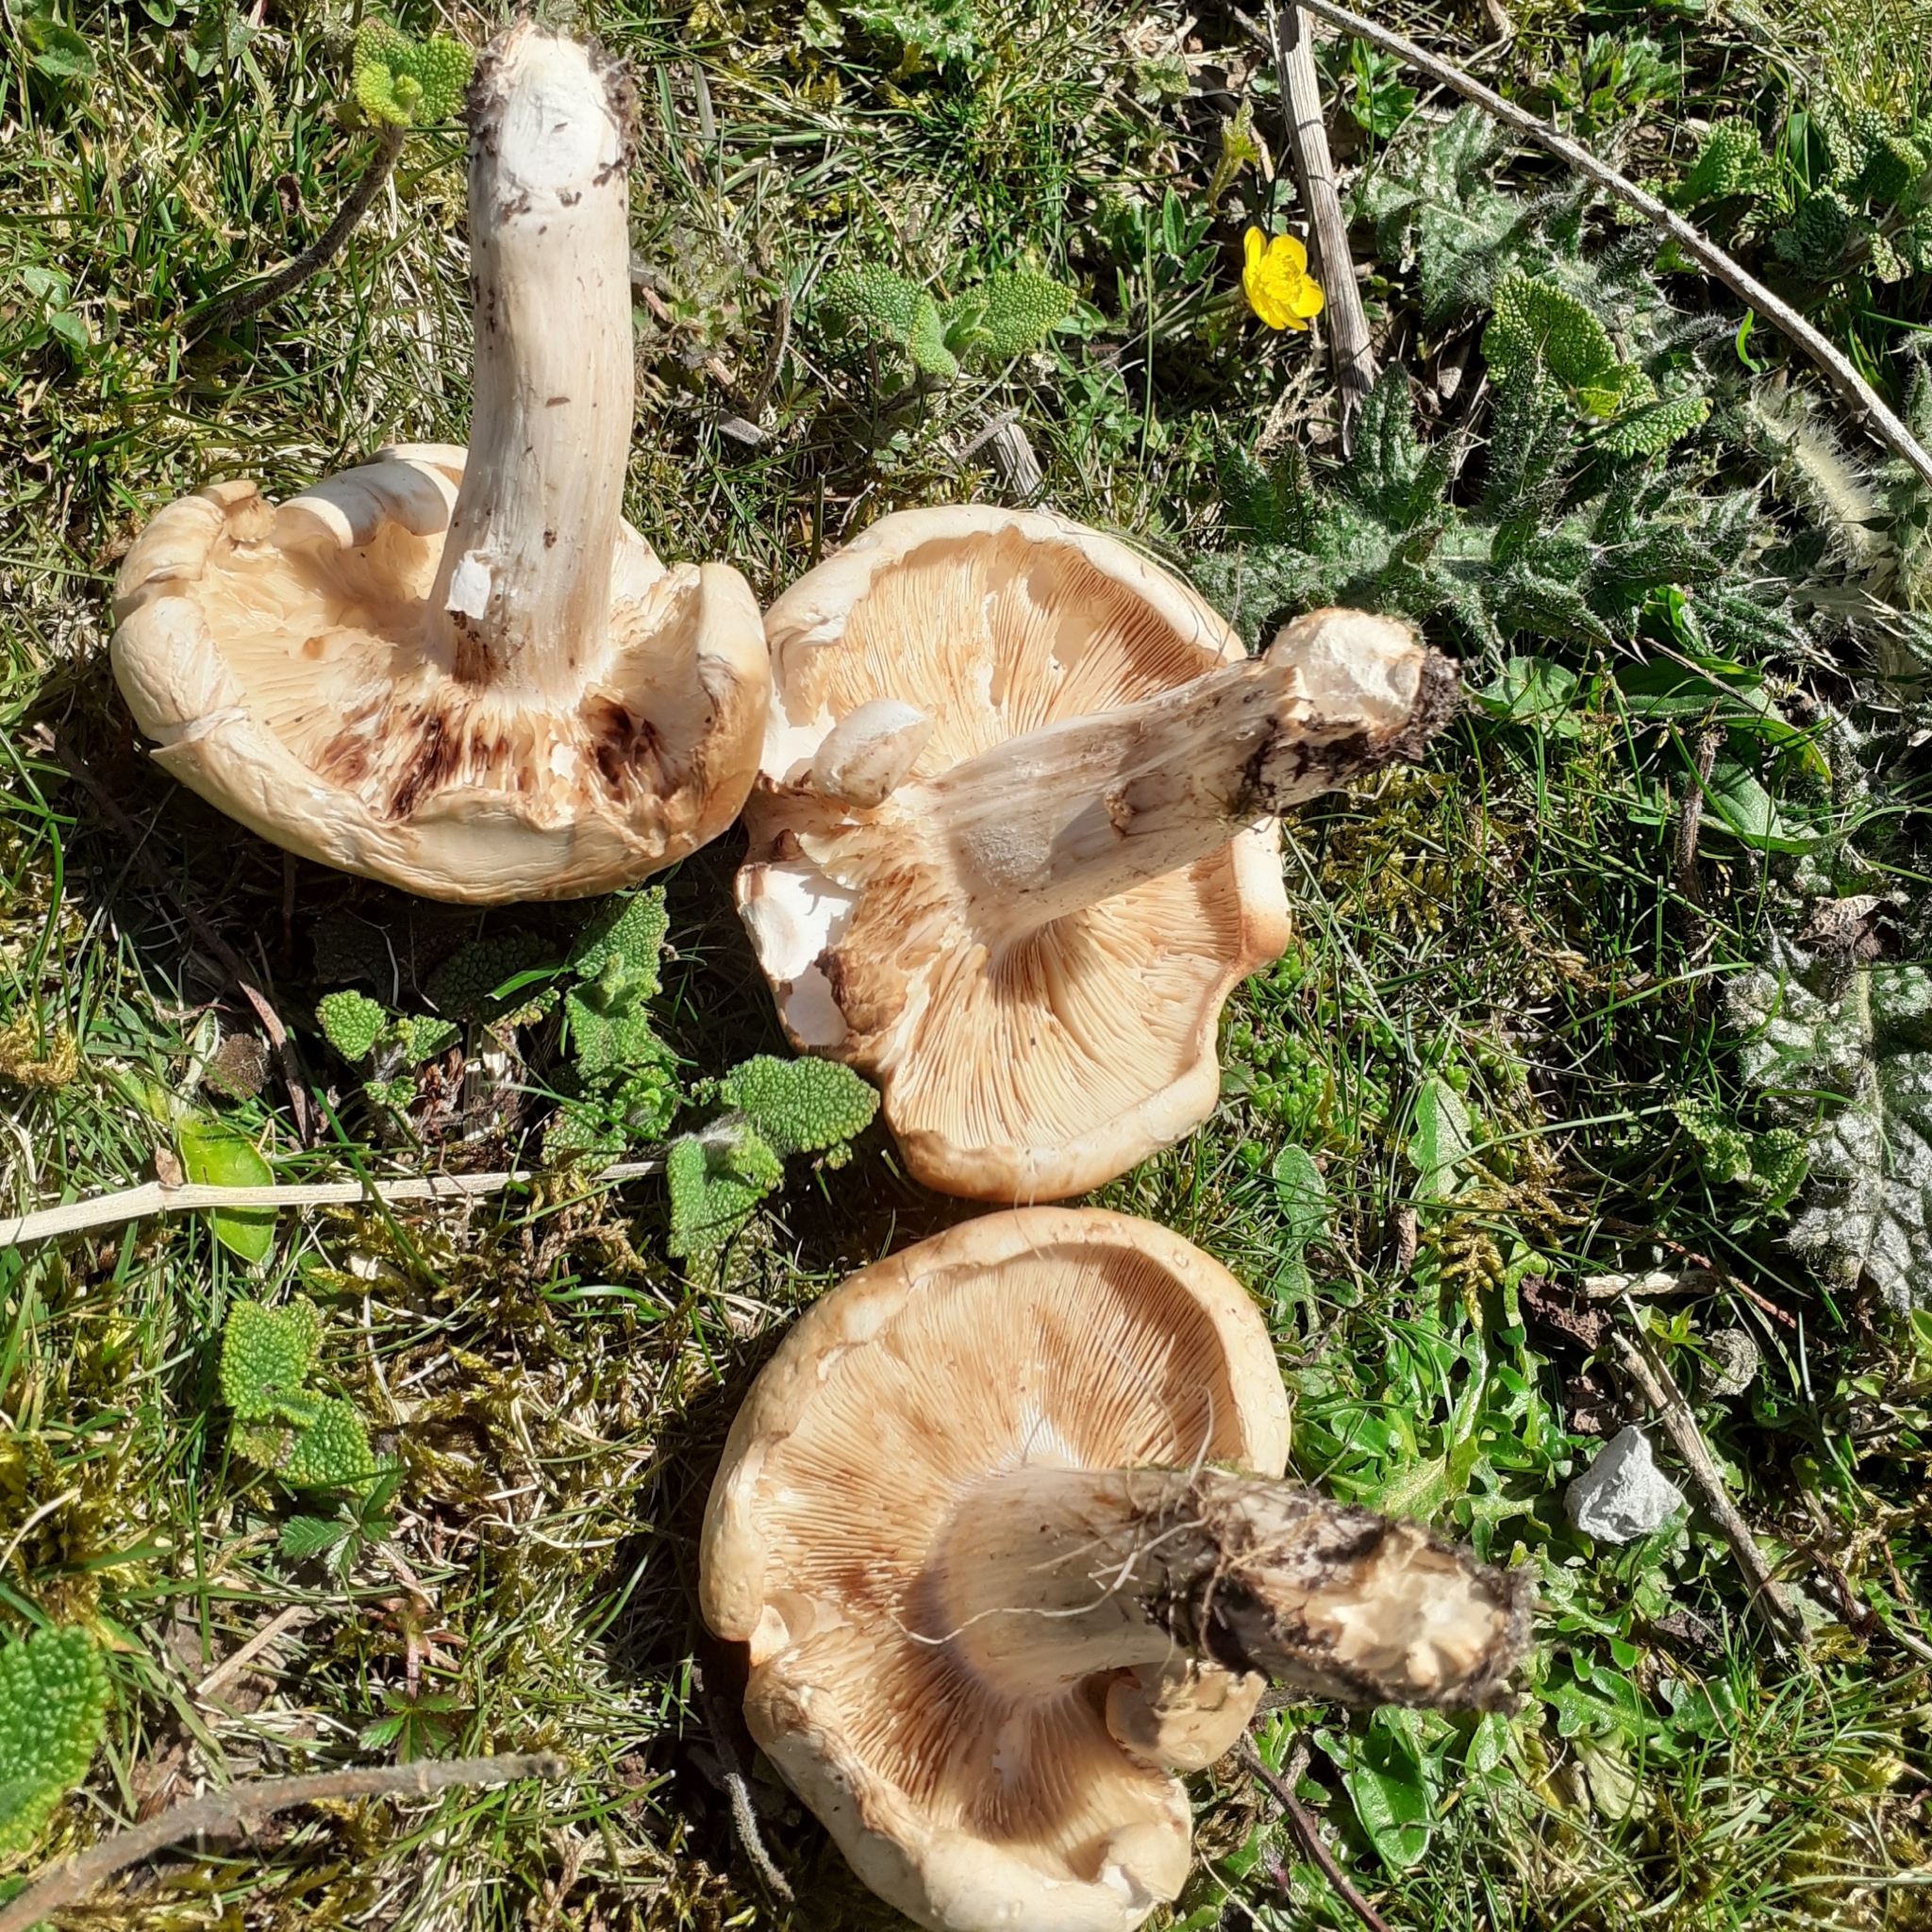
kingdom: Fungi
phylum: Basidiomycota
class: Agaricomycetes
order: Agaricales
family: Lyophyllaceae
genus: Calocybe
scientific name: Calocybe gambosa
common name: St. george's mushroom
